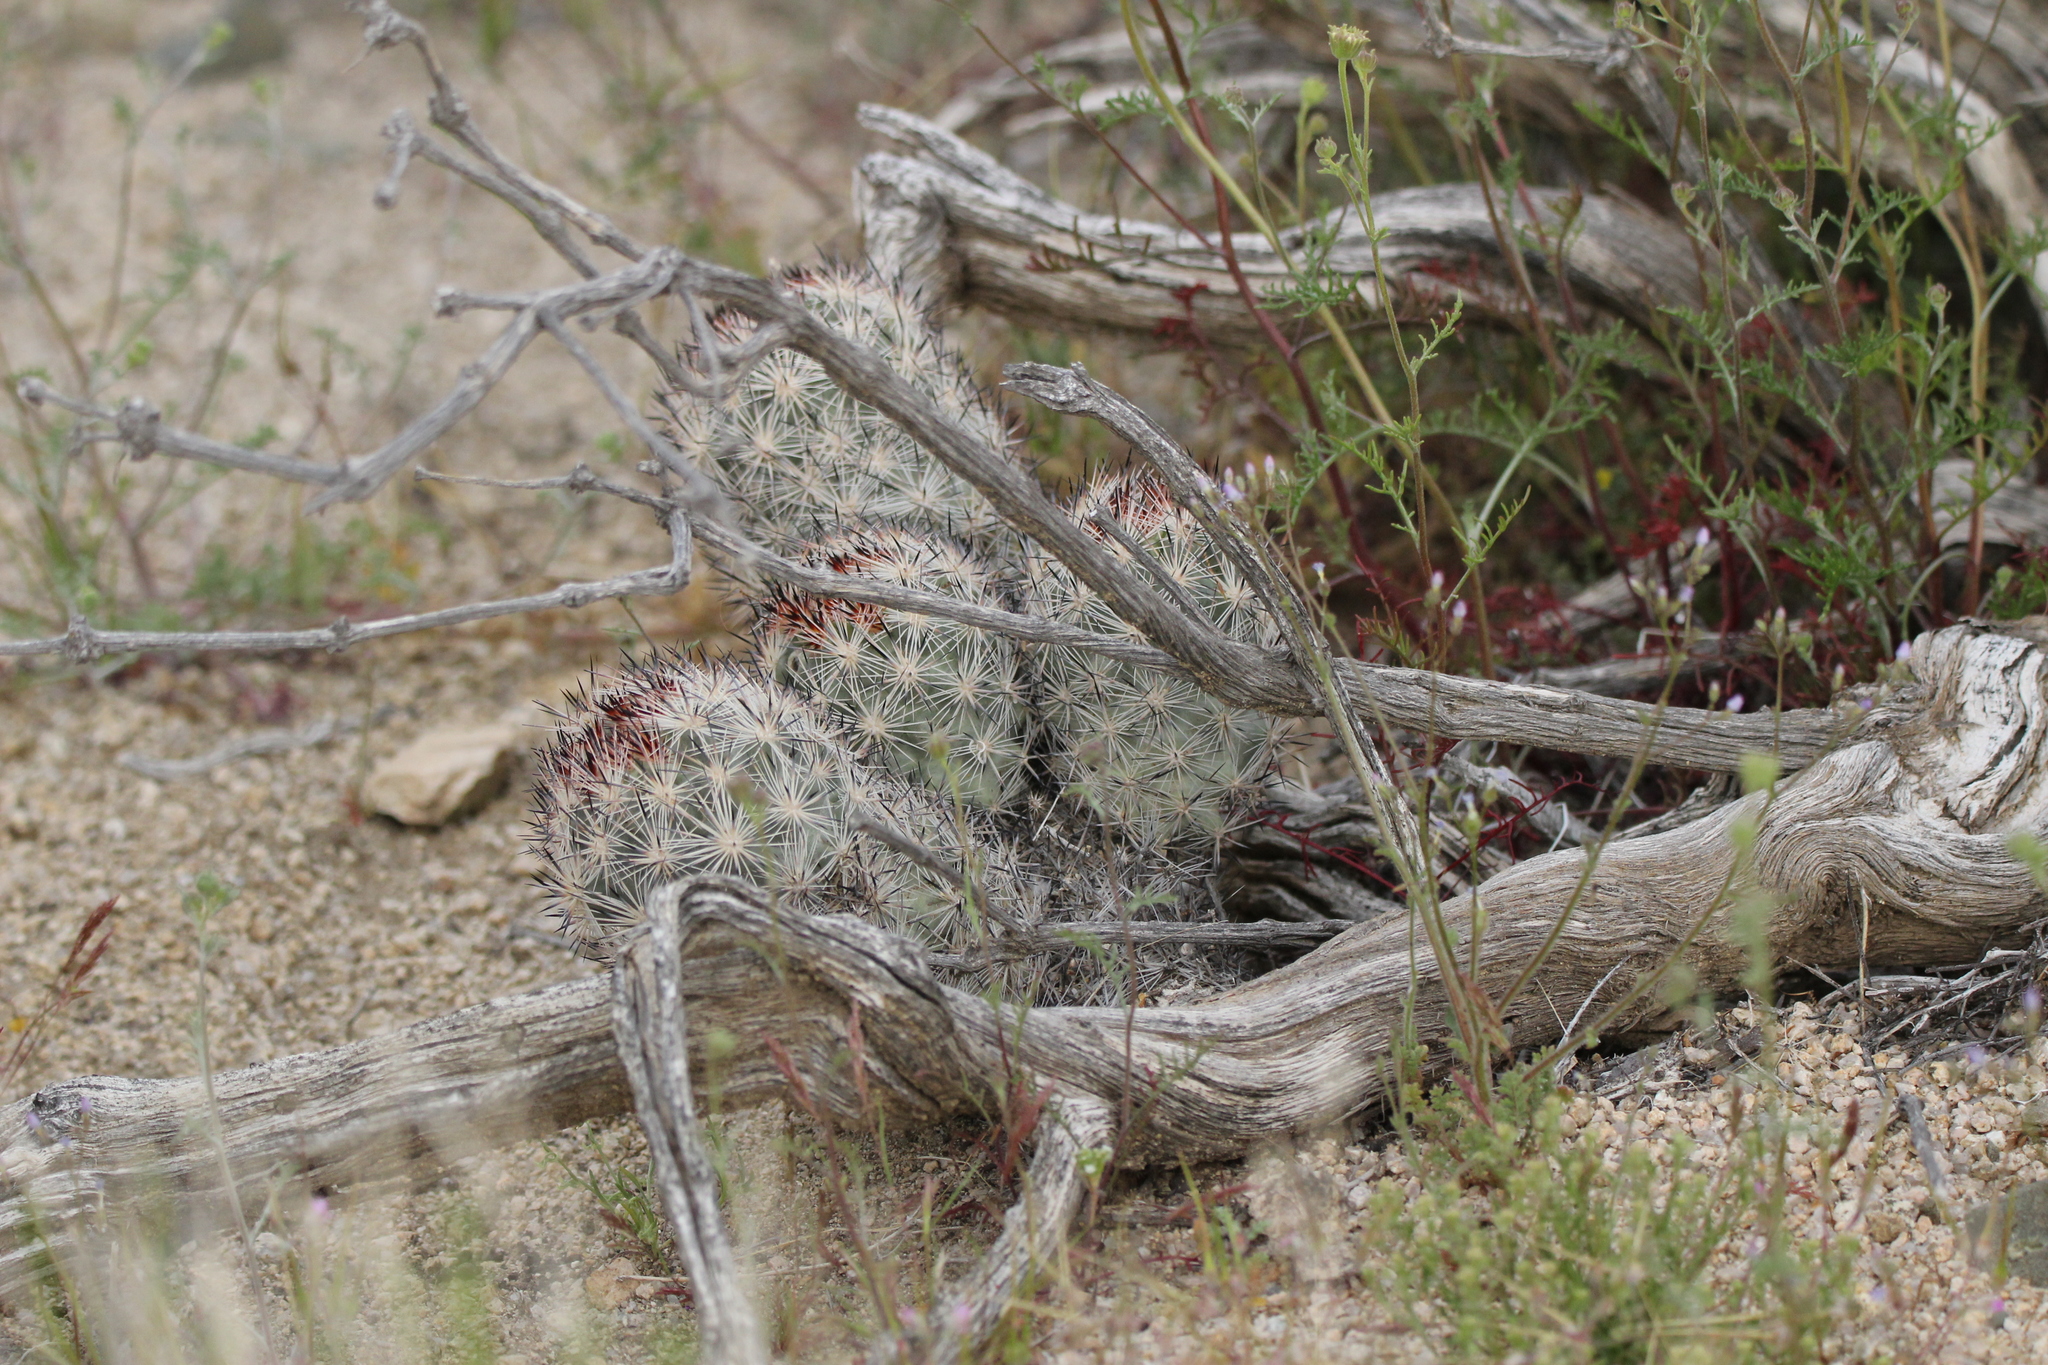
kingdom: Plantae
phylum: Tracheophyta
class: Magnoliopsida
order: Caryophyllales
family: Cactaceae
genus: Pelecyphora
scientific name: Pelecyphora alversonii
